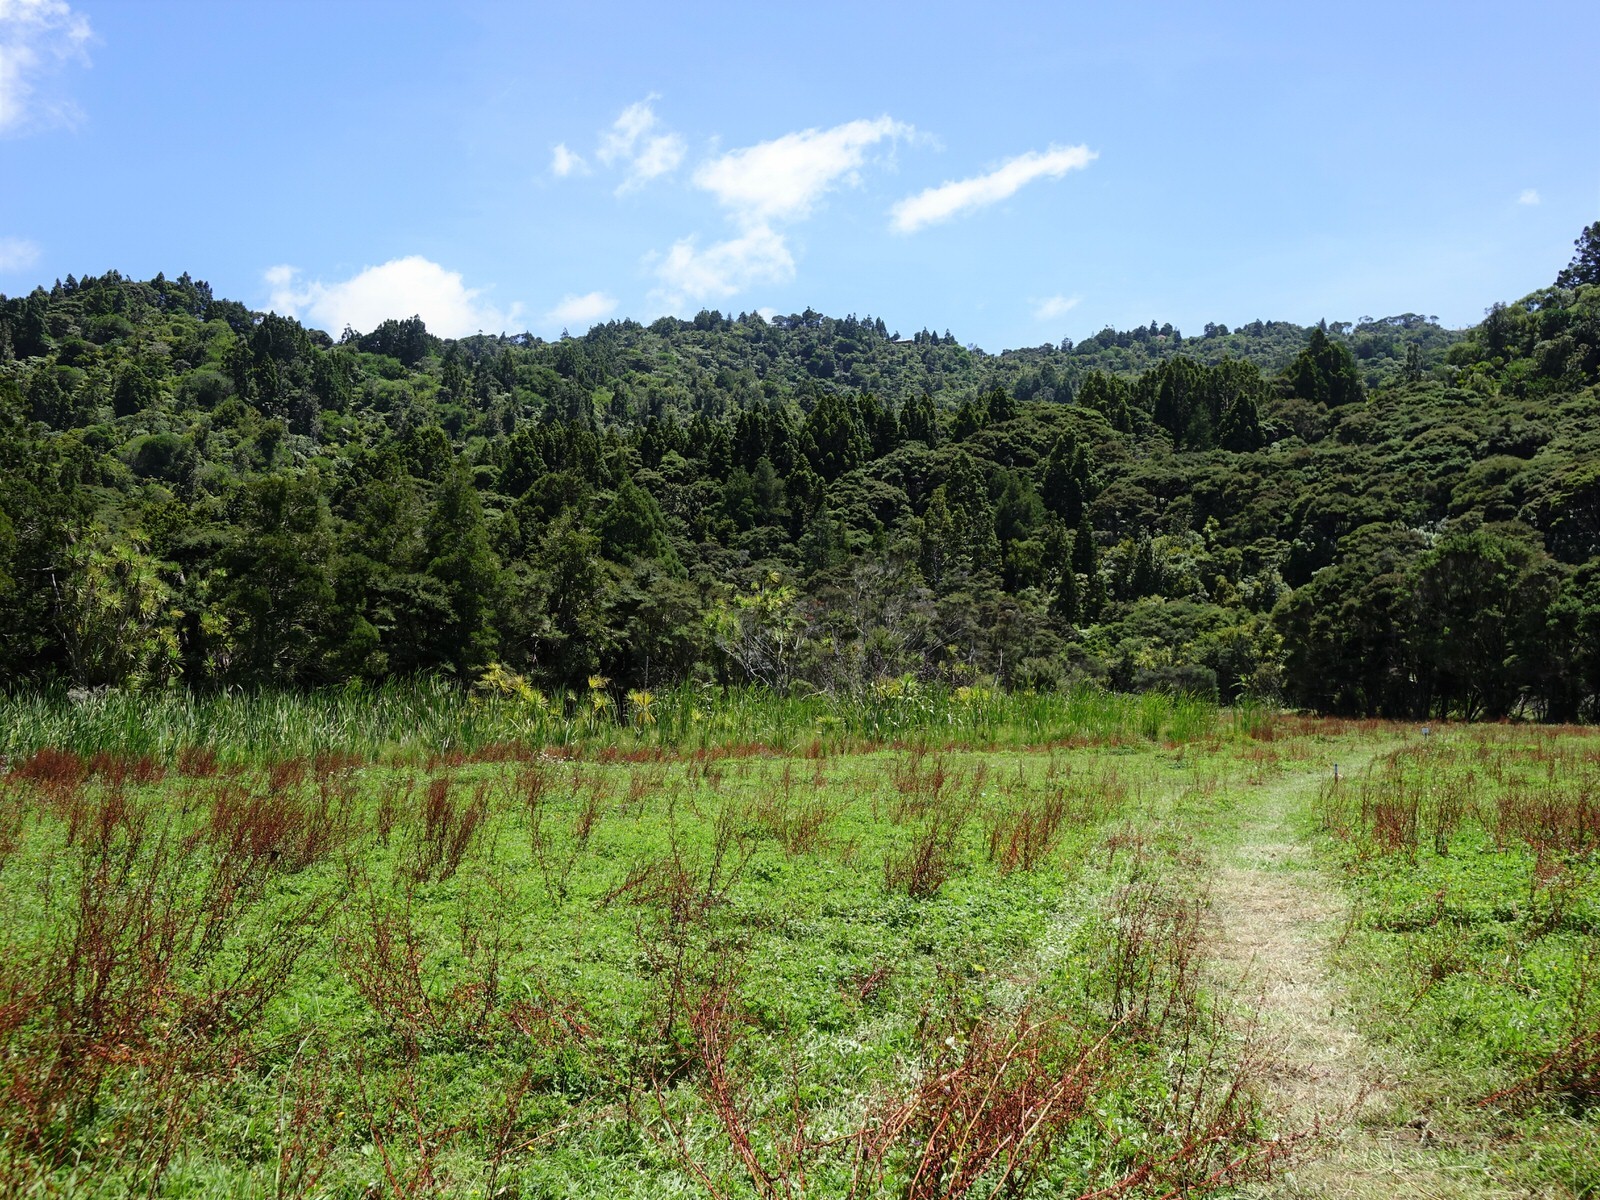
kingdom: Plantae
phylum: Tracheophyta
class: Pinopsida
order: Pinales
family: Araucariaceae
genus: Agathis
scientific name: Agathis australis
